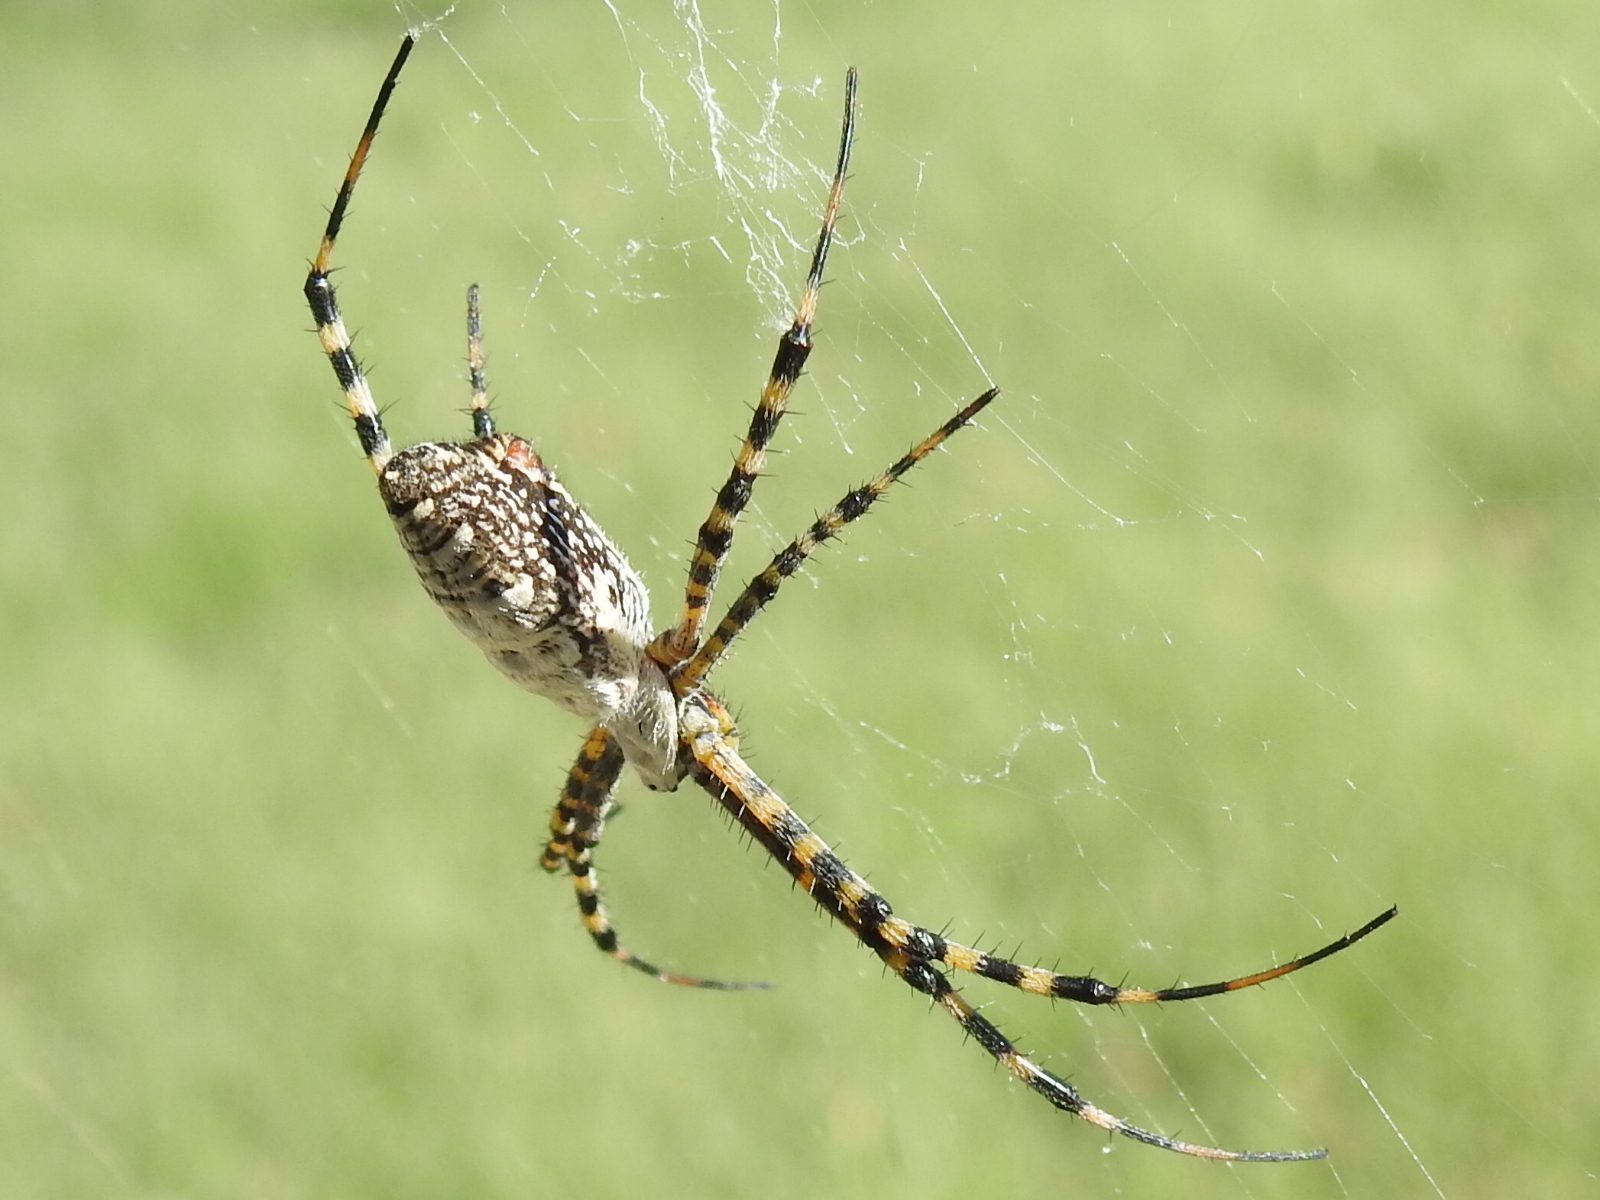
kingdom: Animalia
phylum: Arthropoda
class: Arachnida
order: Araneae
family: Araneidae
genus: Argiope
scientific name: Argiope trifasciata
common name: Banded garden spider
